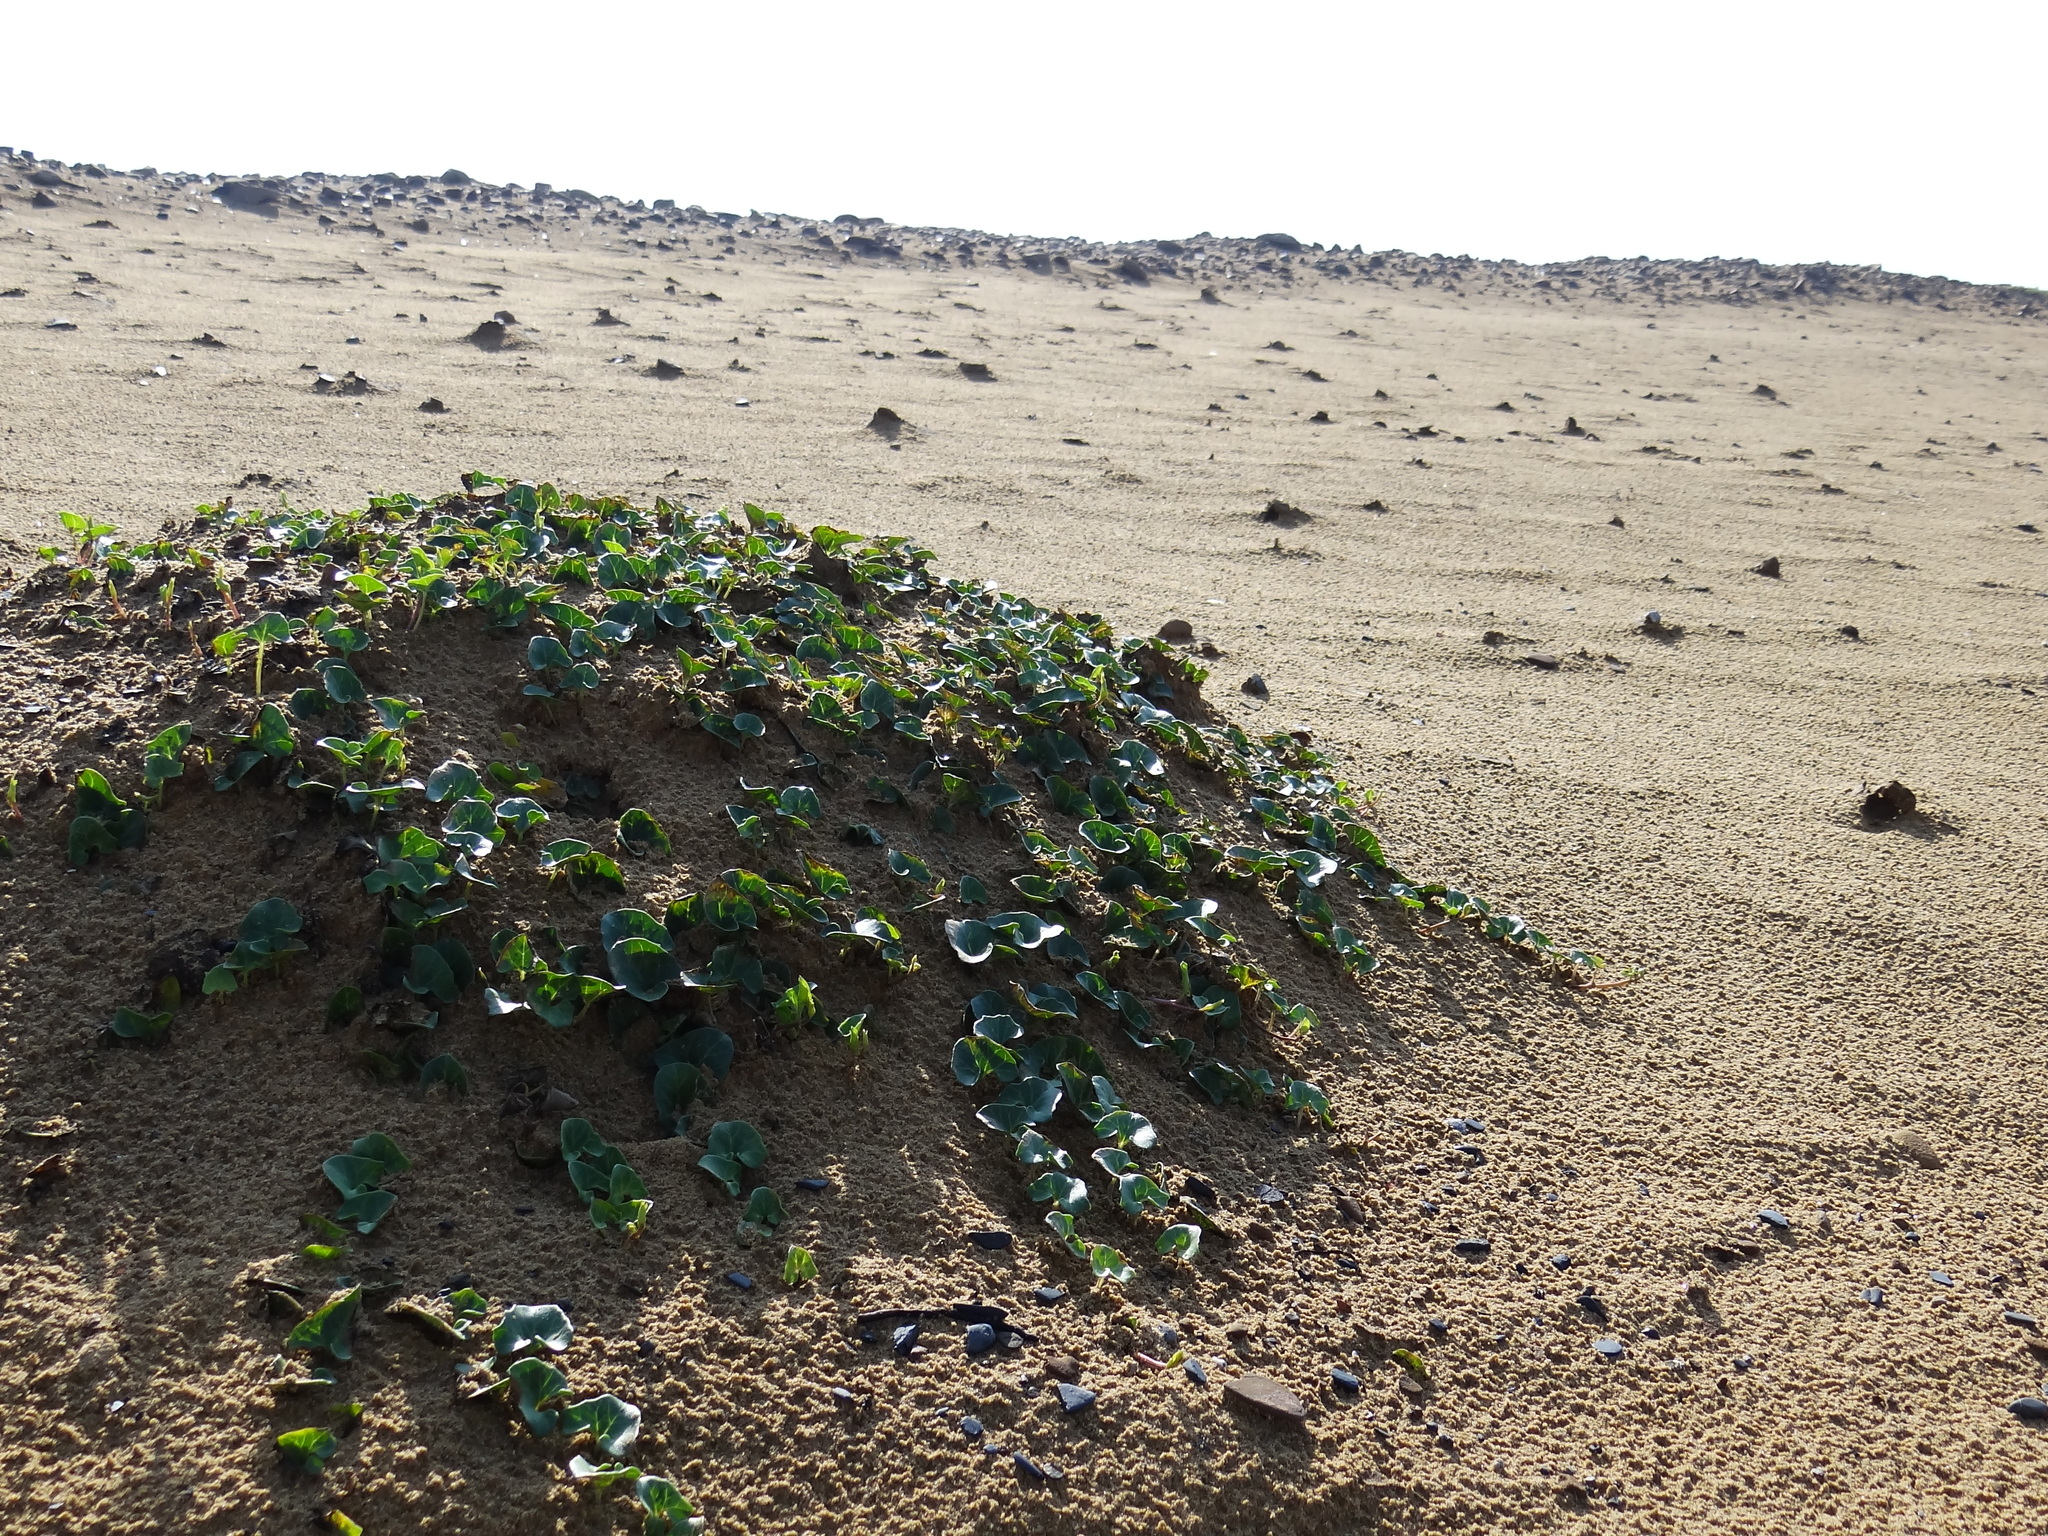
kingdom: Plantae
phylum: Tracheophyta
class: Magnoliopsida
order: Solanales
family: Convolvulaceae
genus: Calystegia
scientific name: Calystegia soldanella
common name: Sea bindweed
